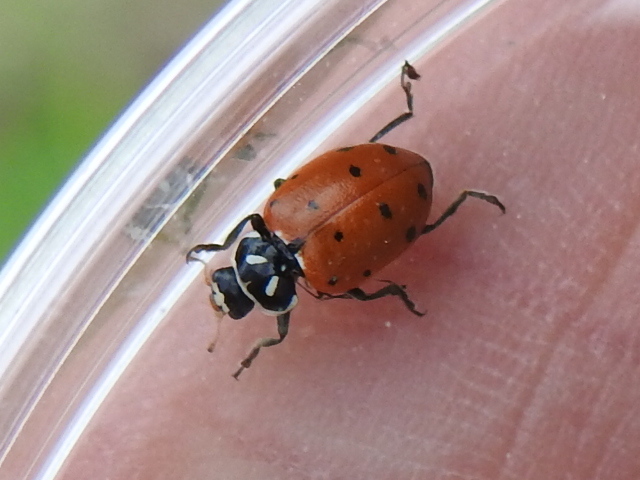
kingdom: Animalia
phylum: Arthropoda
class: Insecta
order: Coleoptera
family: Coccinellidae
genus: Hippodamia
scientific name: Hippodamia convergens
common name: Convergent lady beetle
